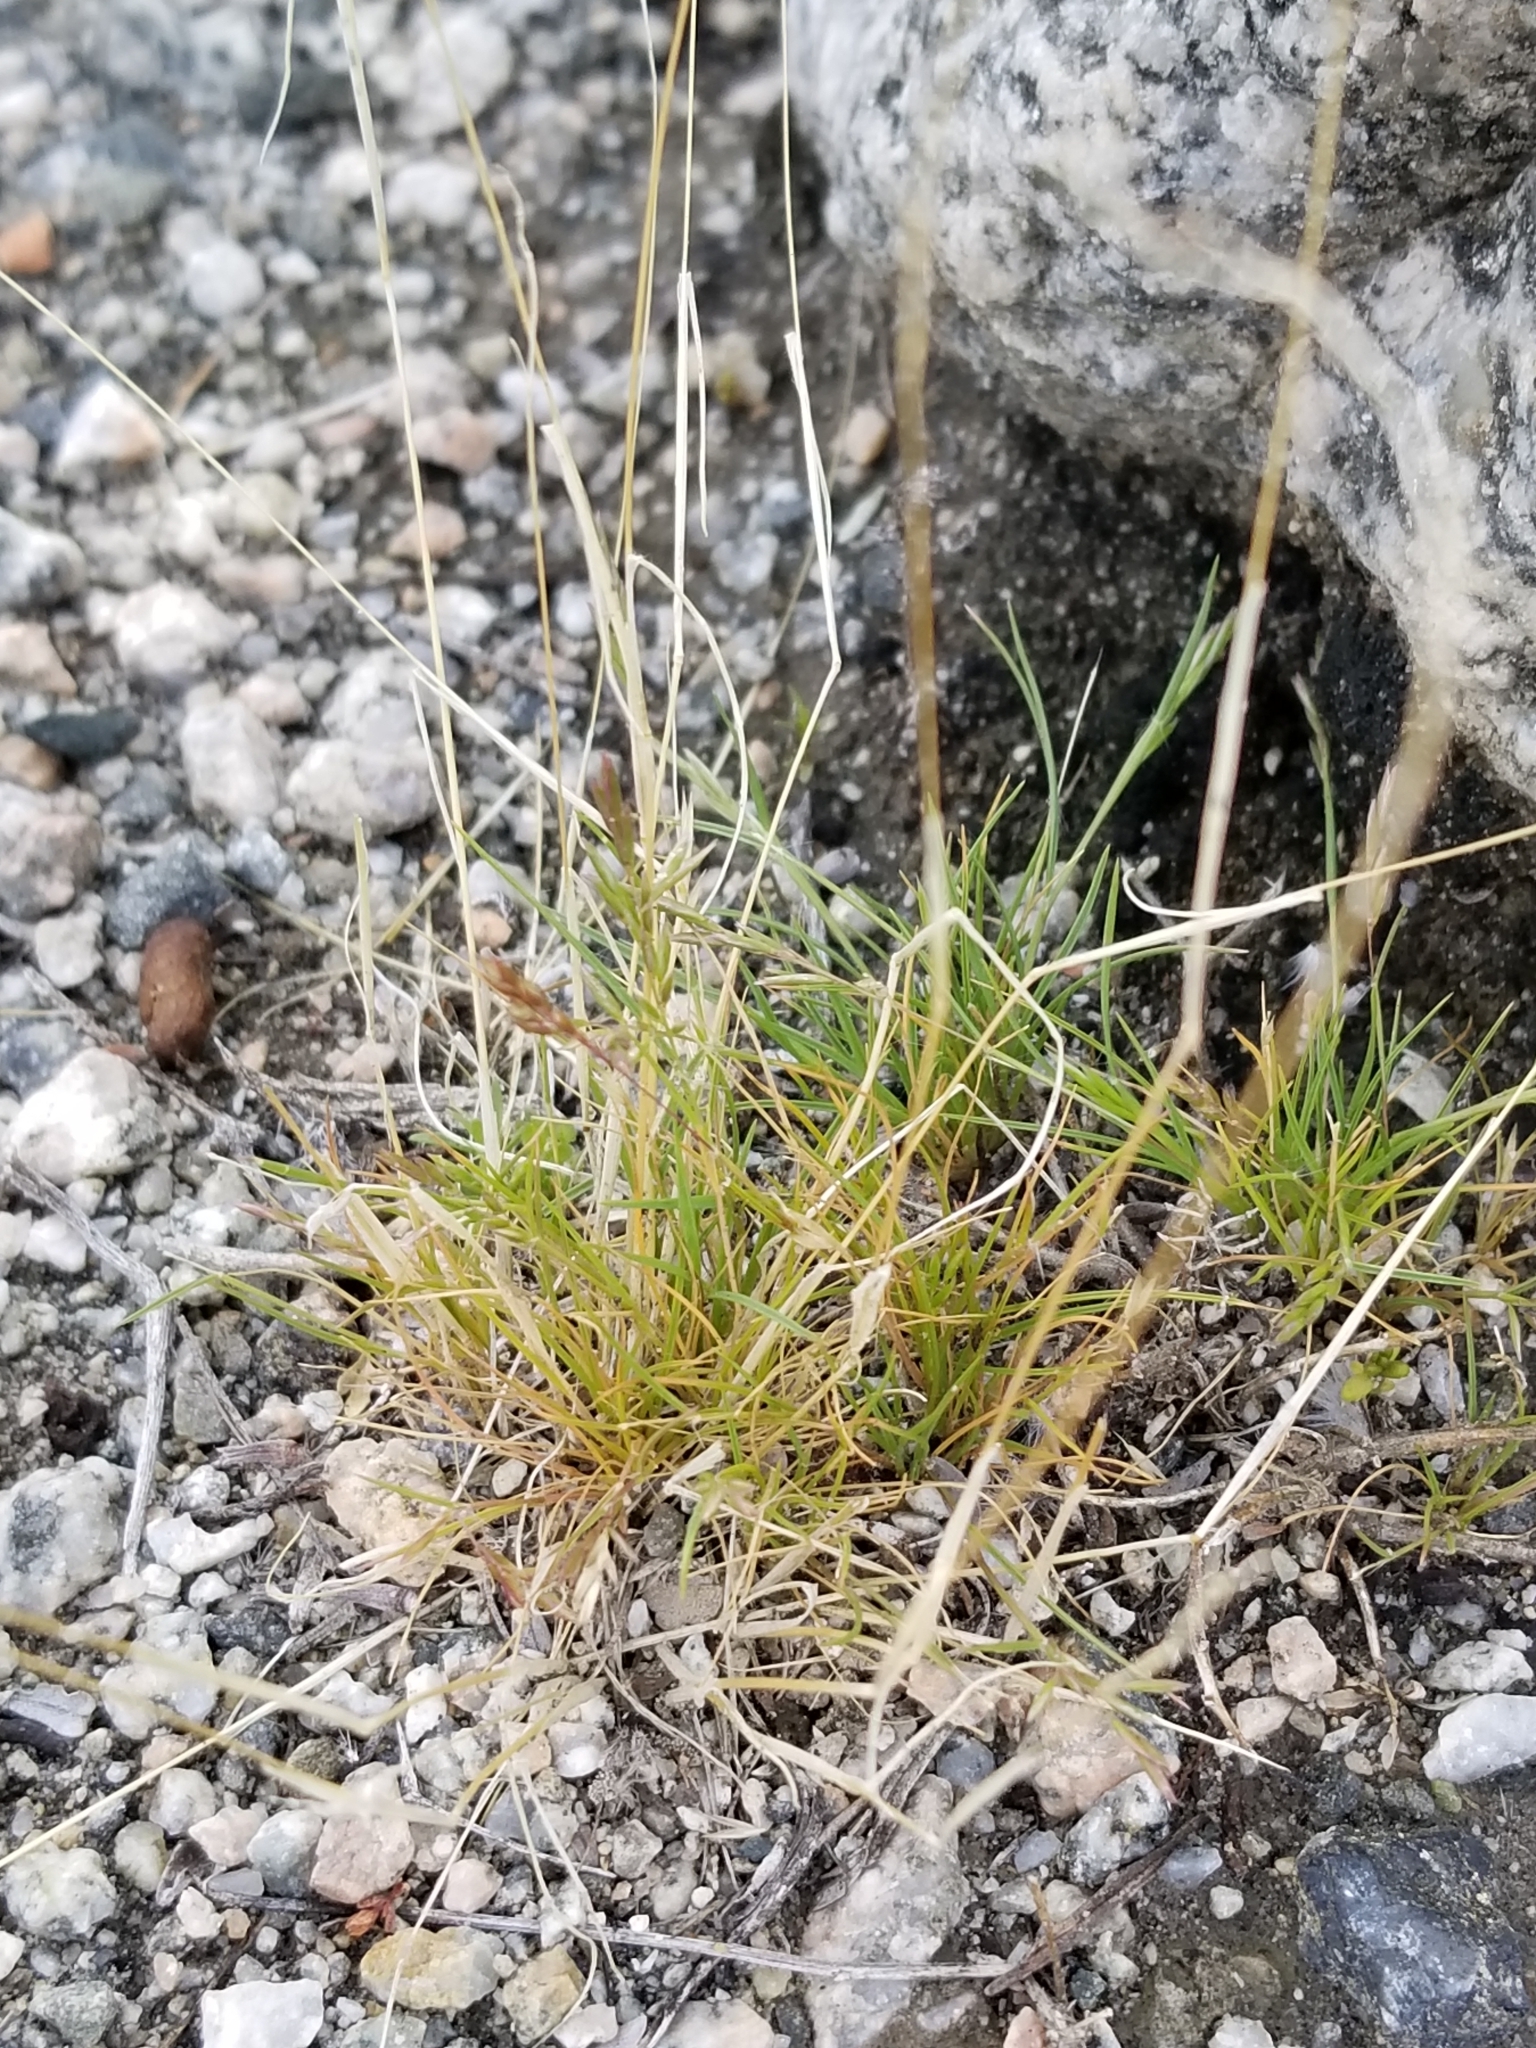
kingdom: Plantae
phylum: Tracheophyta
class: Liliopsida
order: Poales
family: Poaceae
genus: Schismus
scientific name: Schismus barbatus
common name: Kelch-grass
